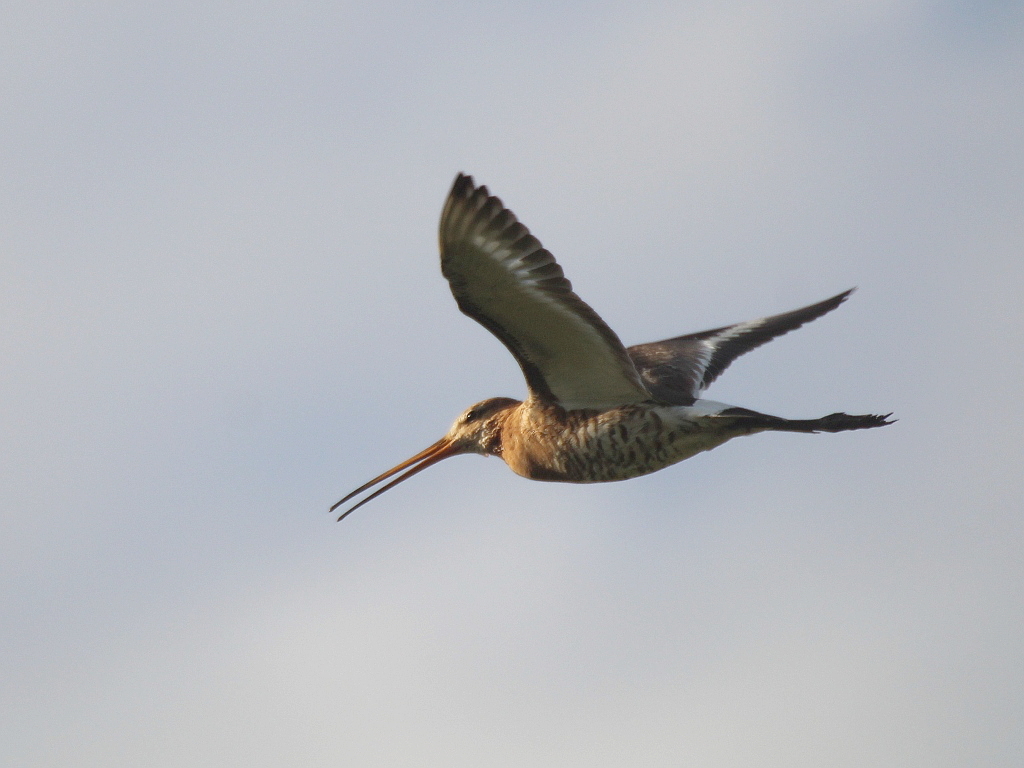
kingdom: Animalia
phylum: Chordata
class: Aves
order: Charadriiformes
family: Scolopacidae
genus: Limosa
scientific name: Limosa limosa
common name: Black-tailed godwit
